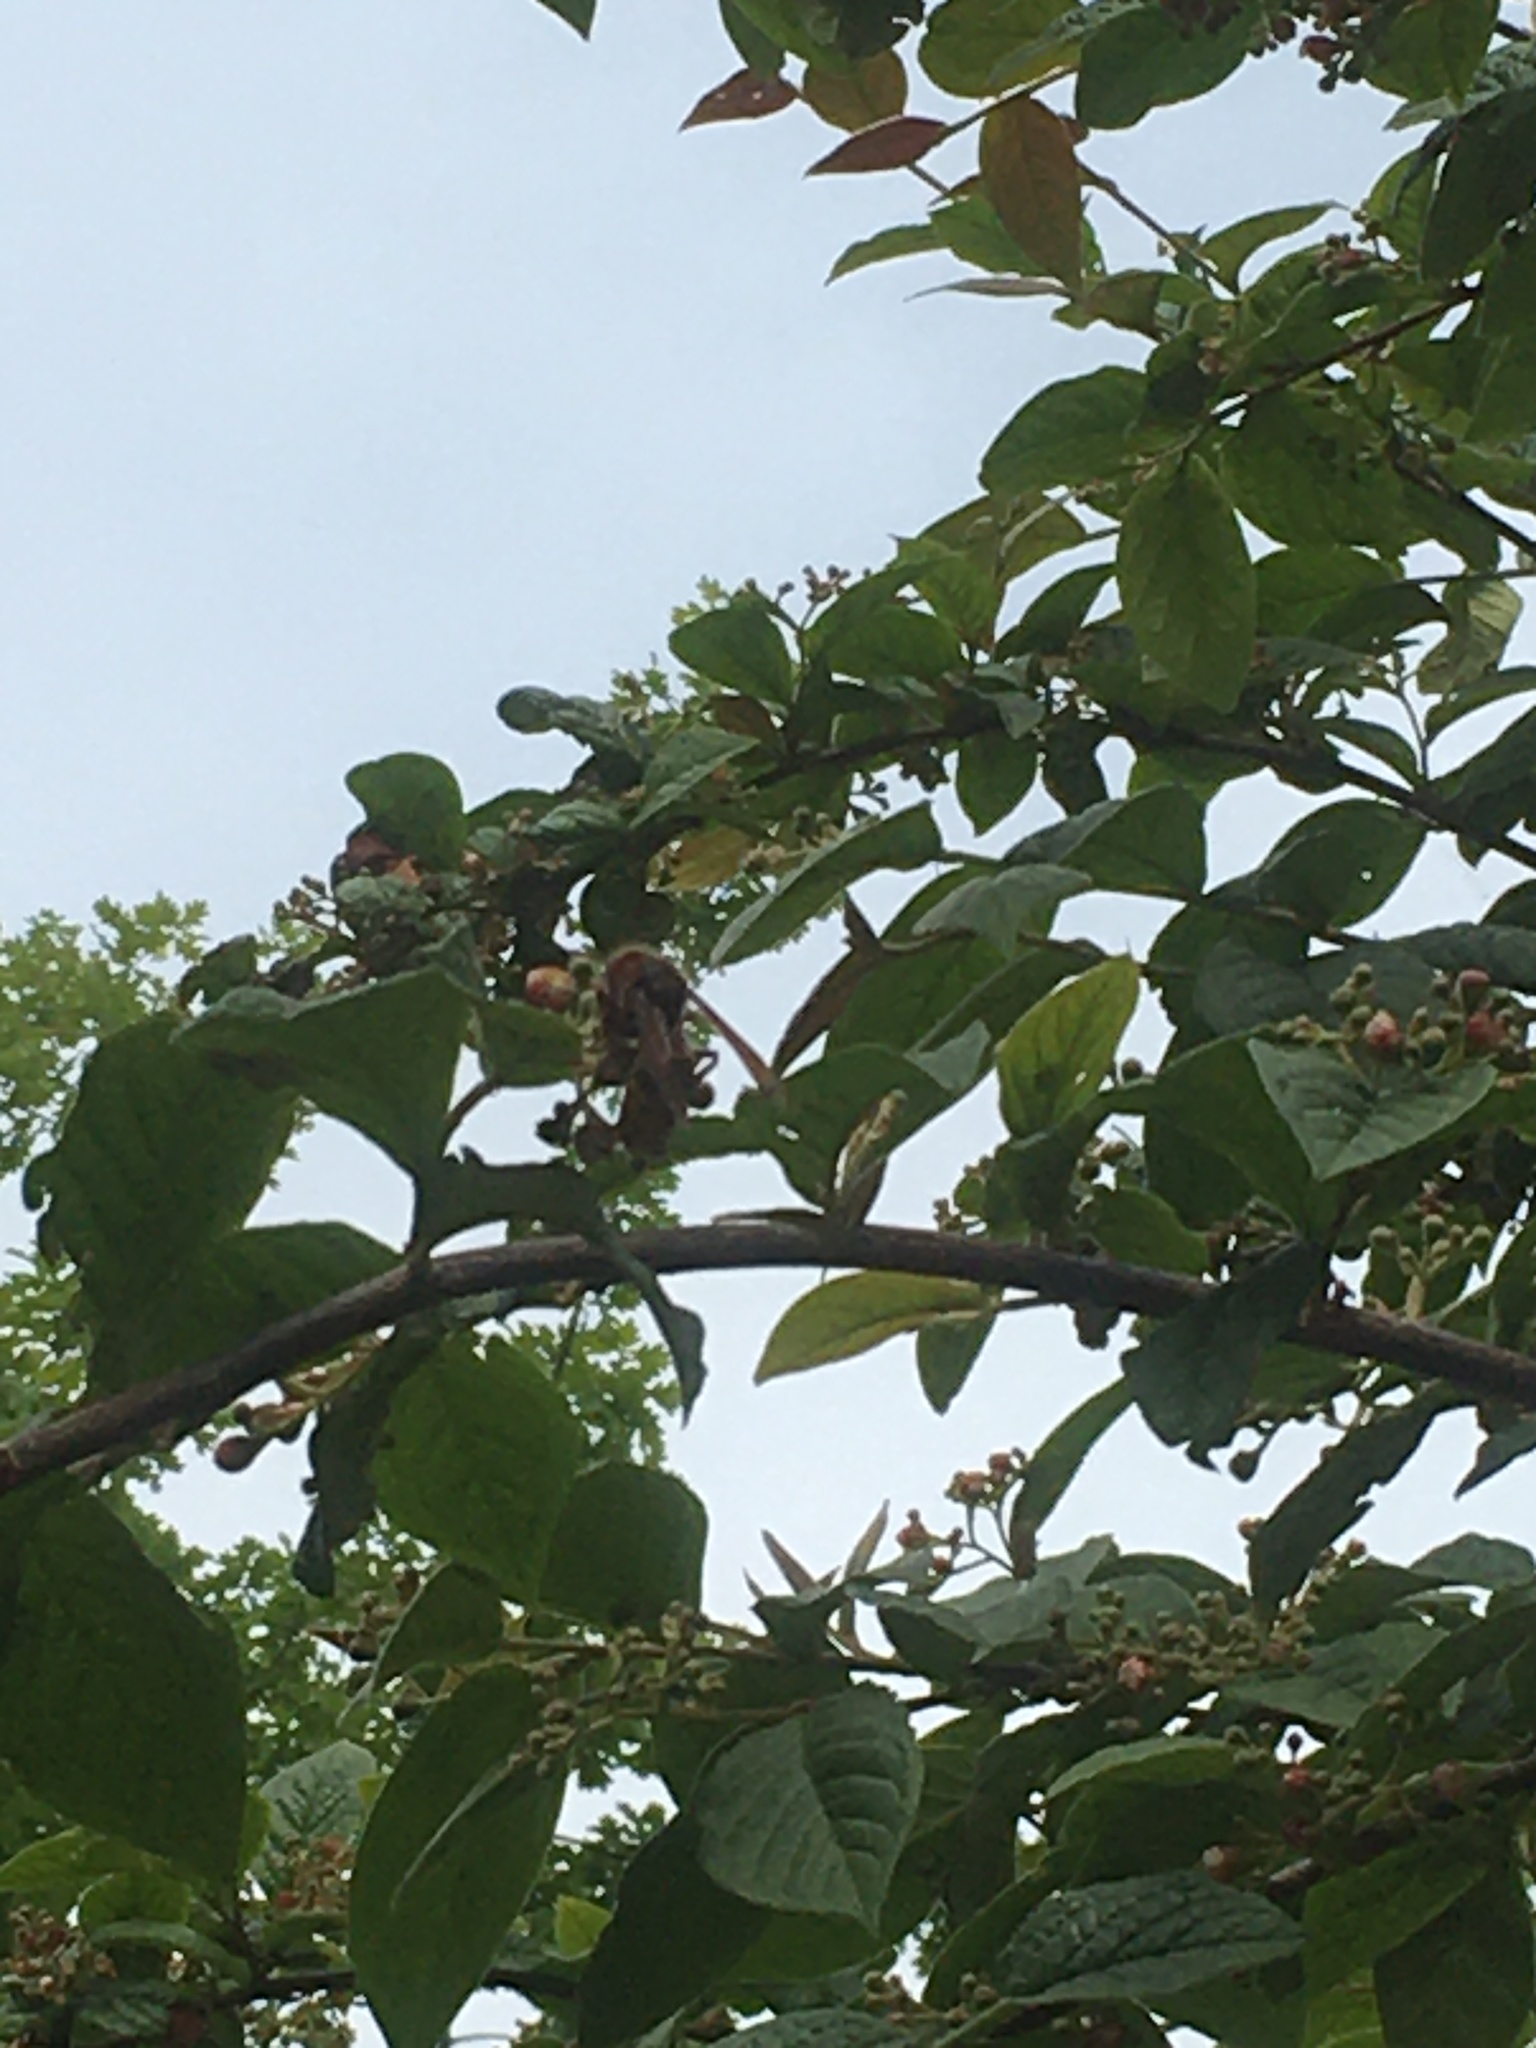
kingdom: Animalia
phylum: Arthropoda
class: Insecta
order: Hymenoptera
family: Vespidae
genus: Vespa
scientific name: Vespa crabro
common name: Hornet
